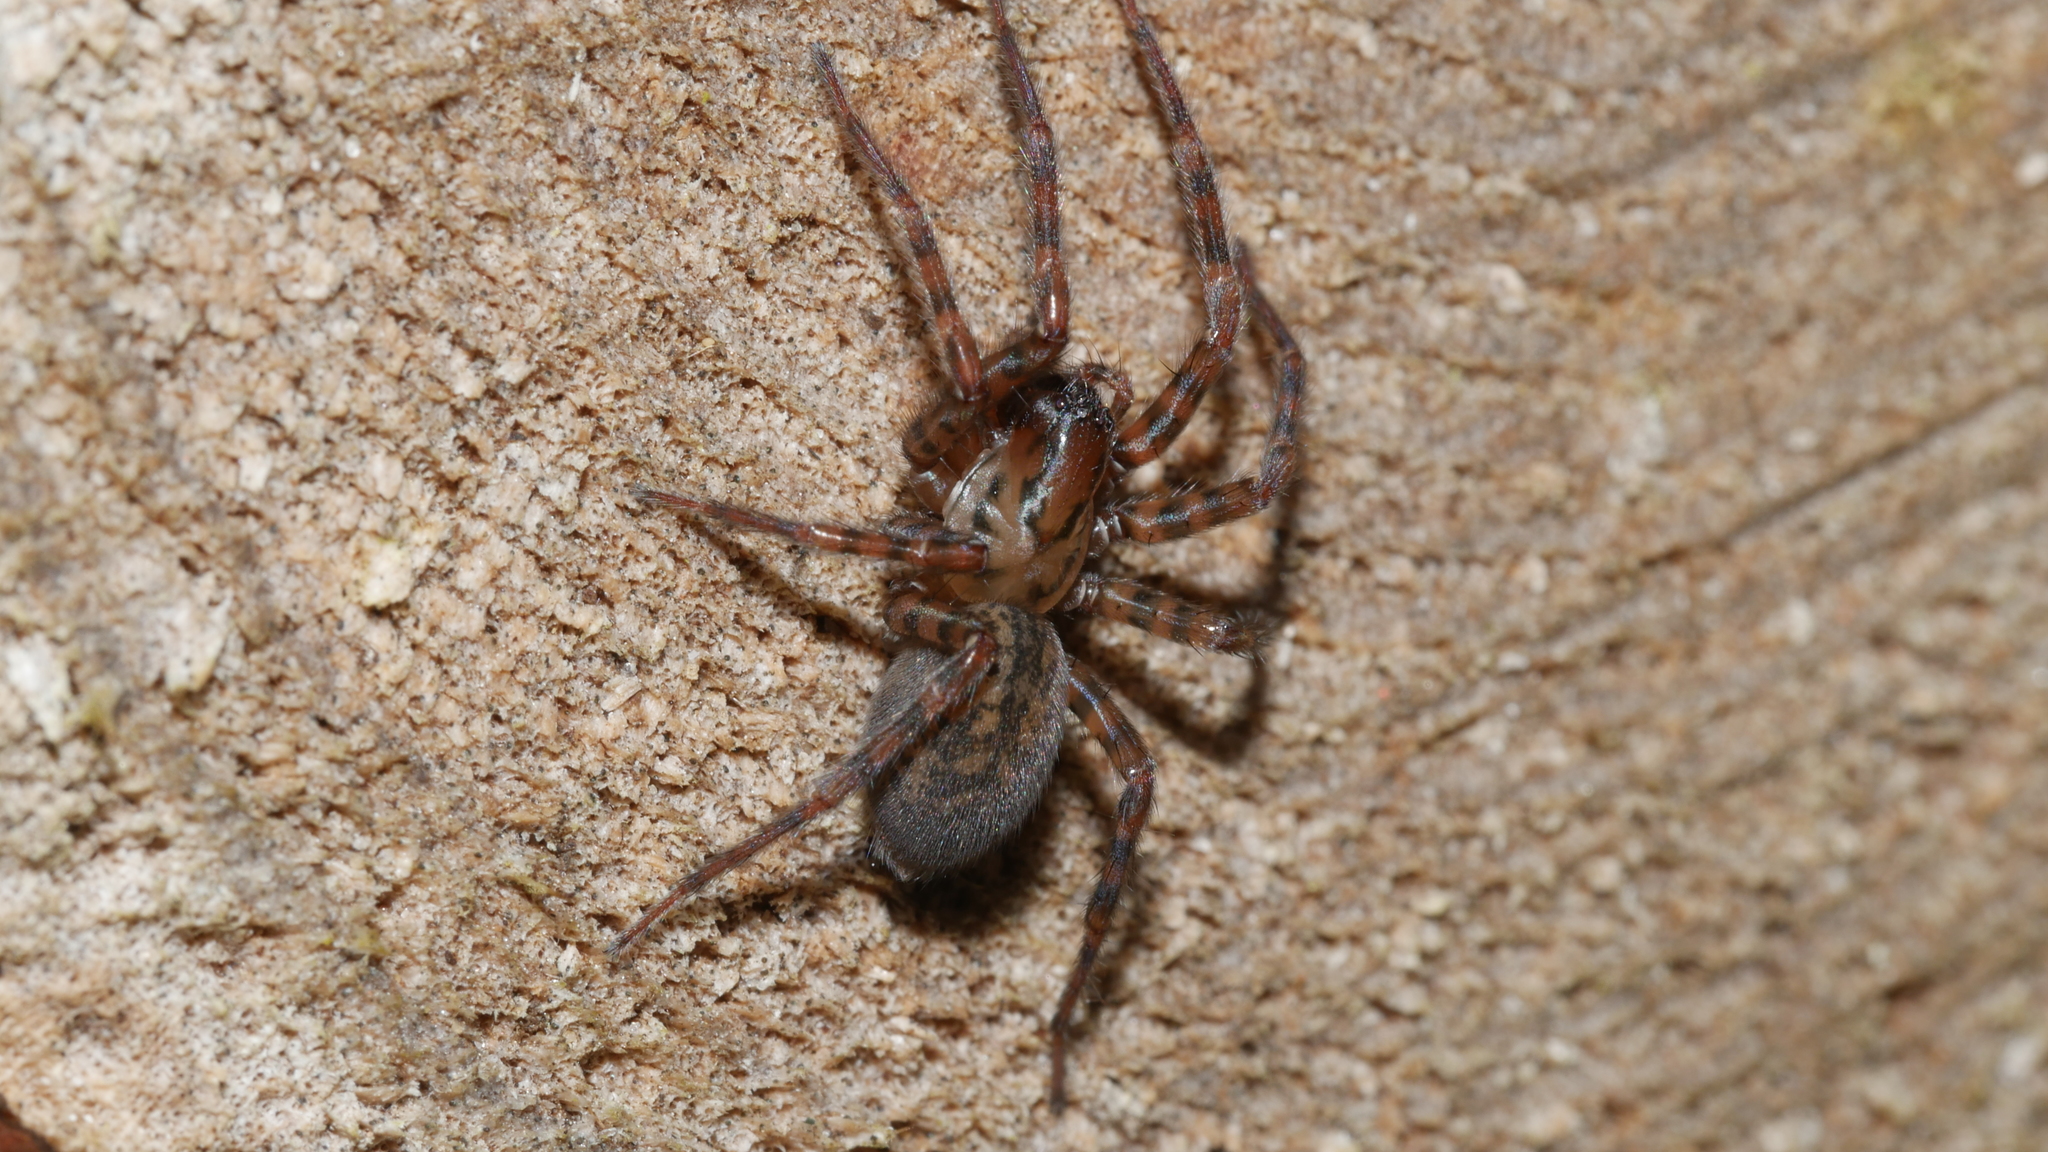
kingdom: Animalia
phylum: Arthropoda
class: Arachnida
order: Araneae
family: Agelenidae
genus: Coras
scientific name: Coras
